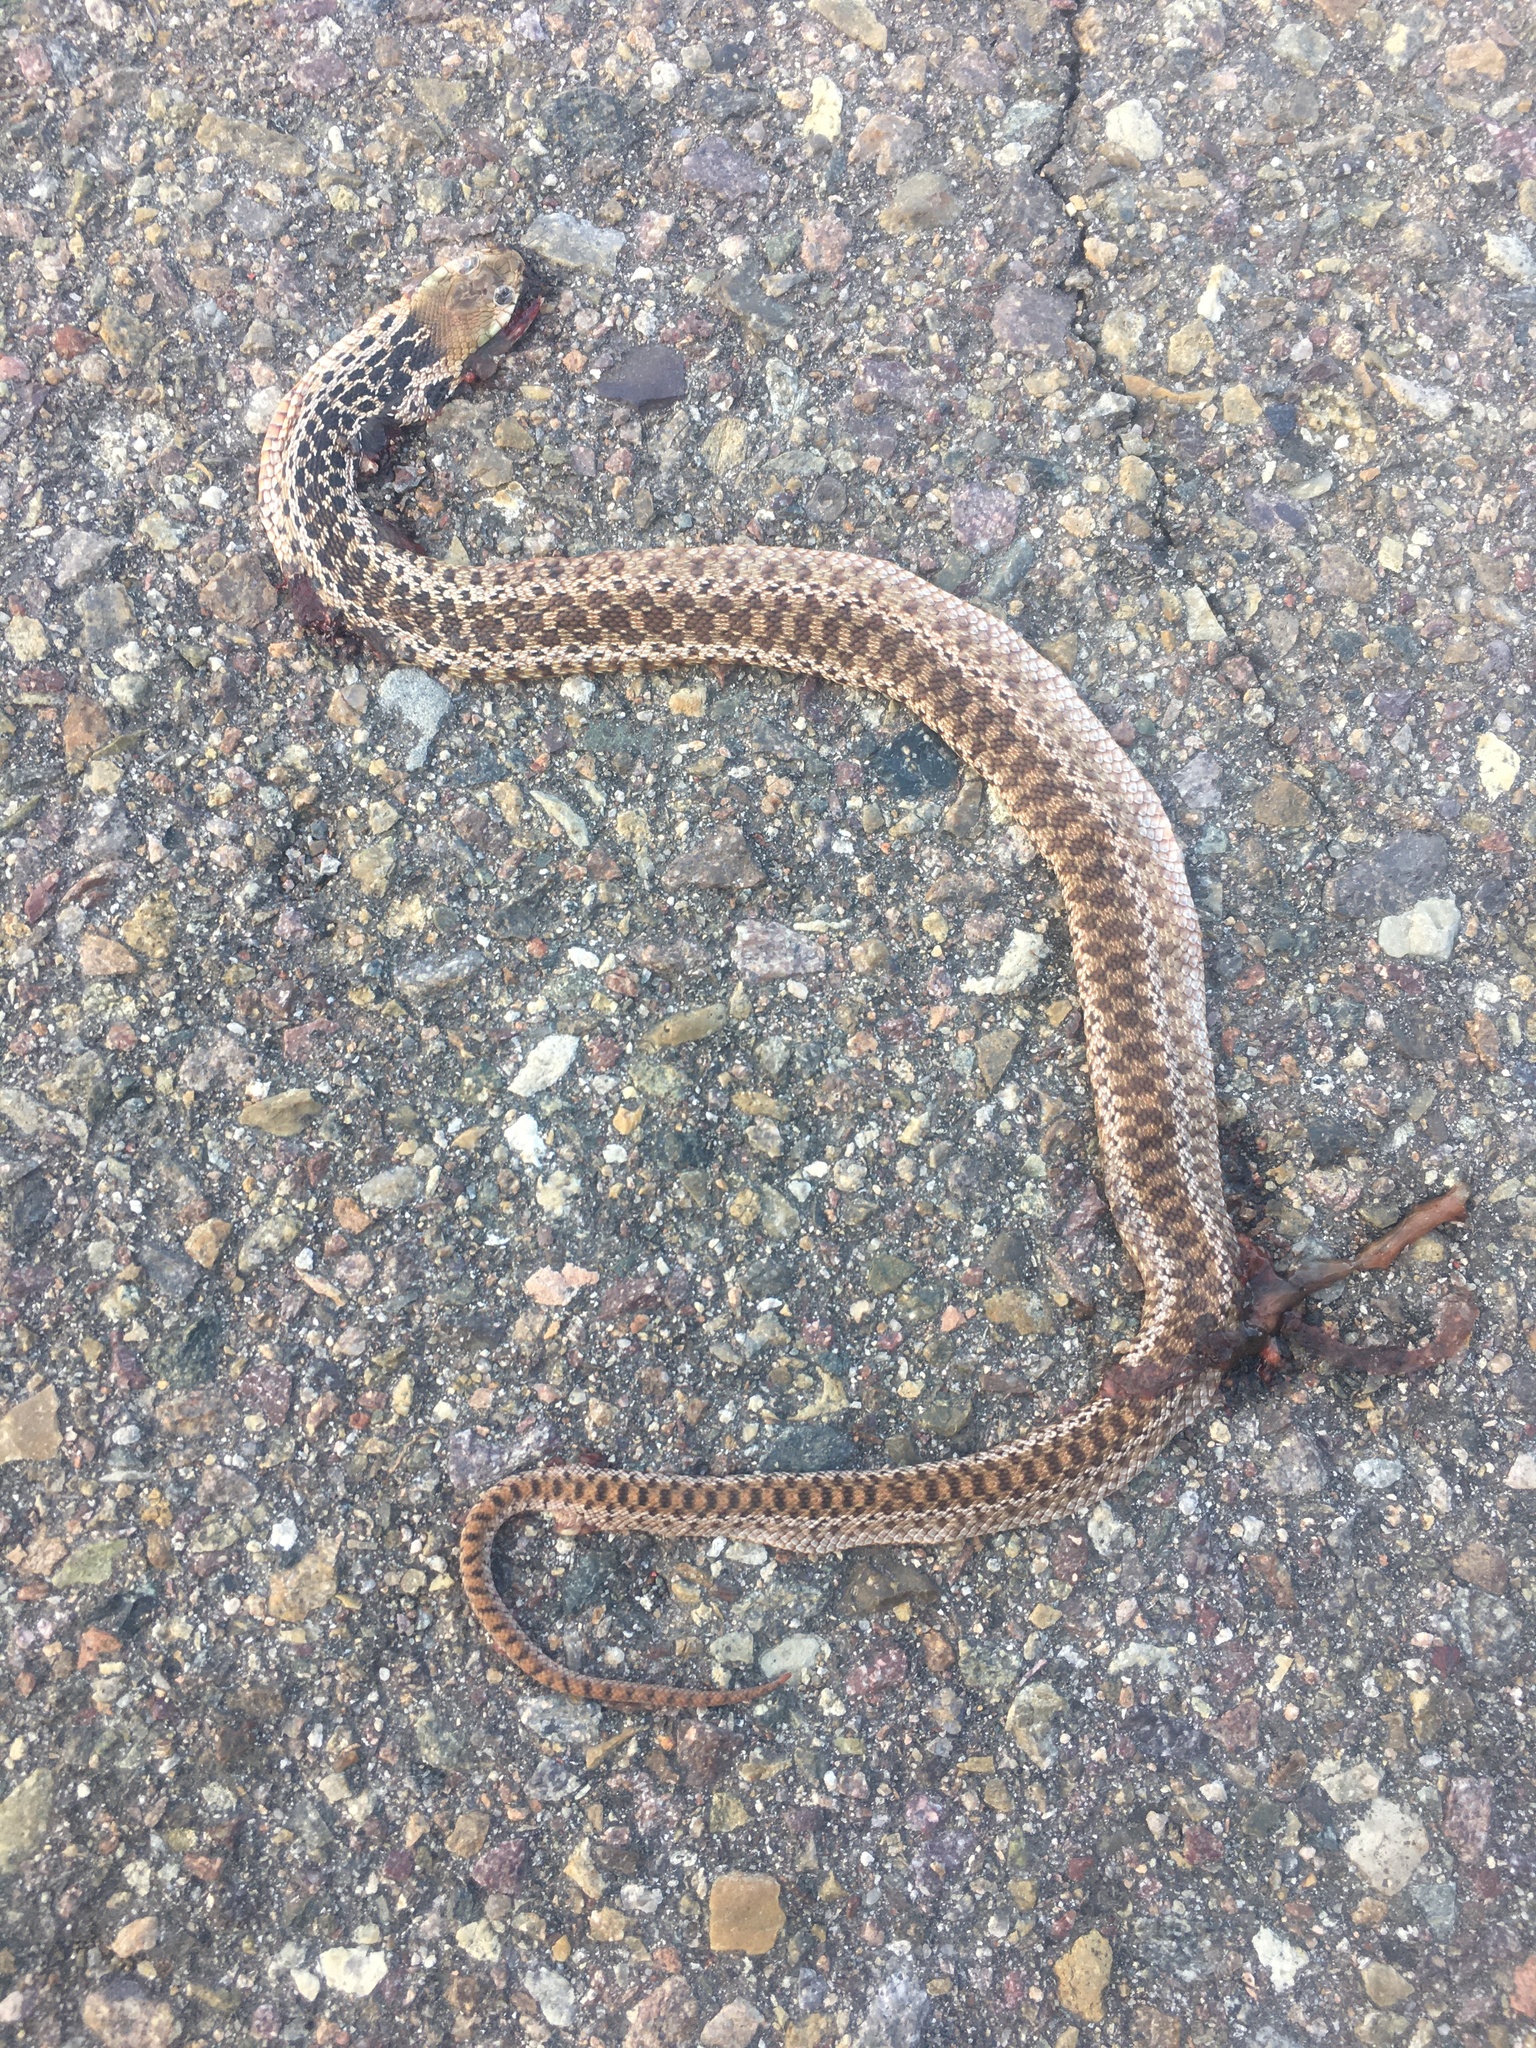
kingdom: Animalia
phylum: Chordata
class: Squamata
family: Colubridae
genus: Pituophis
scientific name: Pituophis catenifer
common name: Gopher snake
